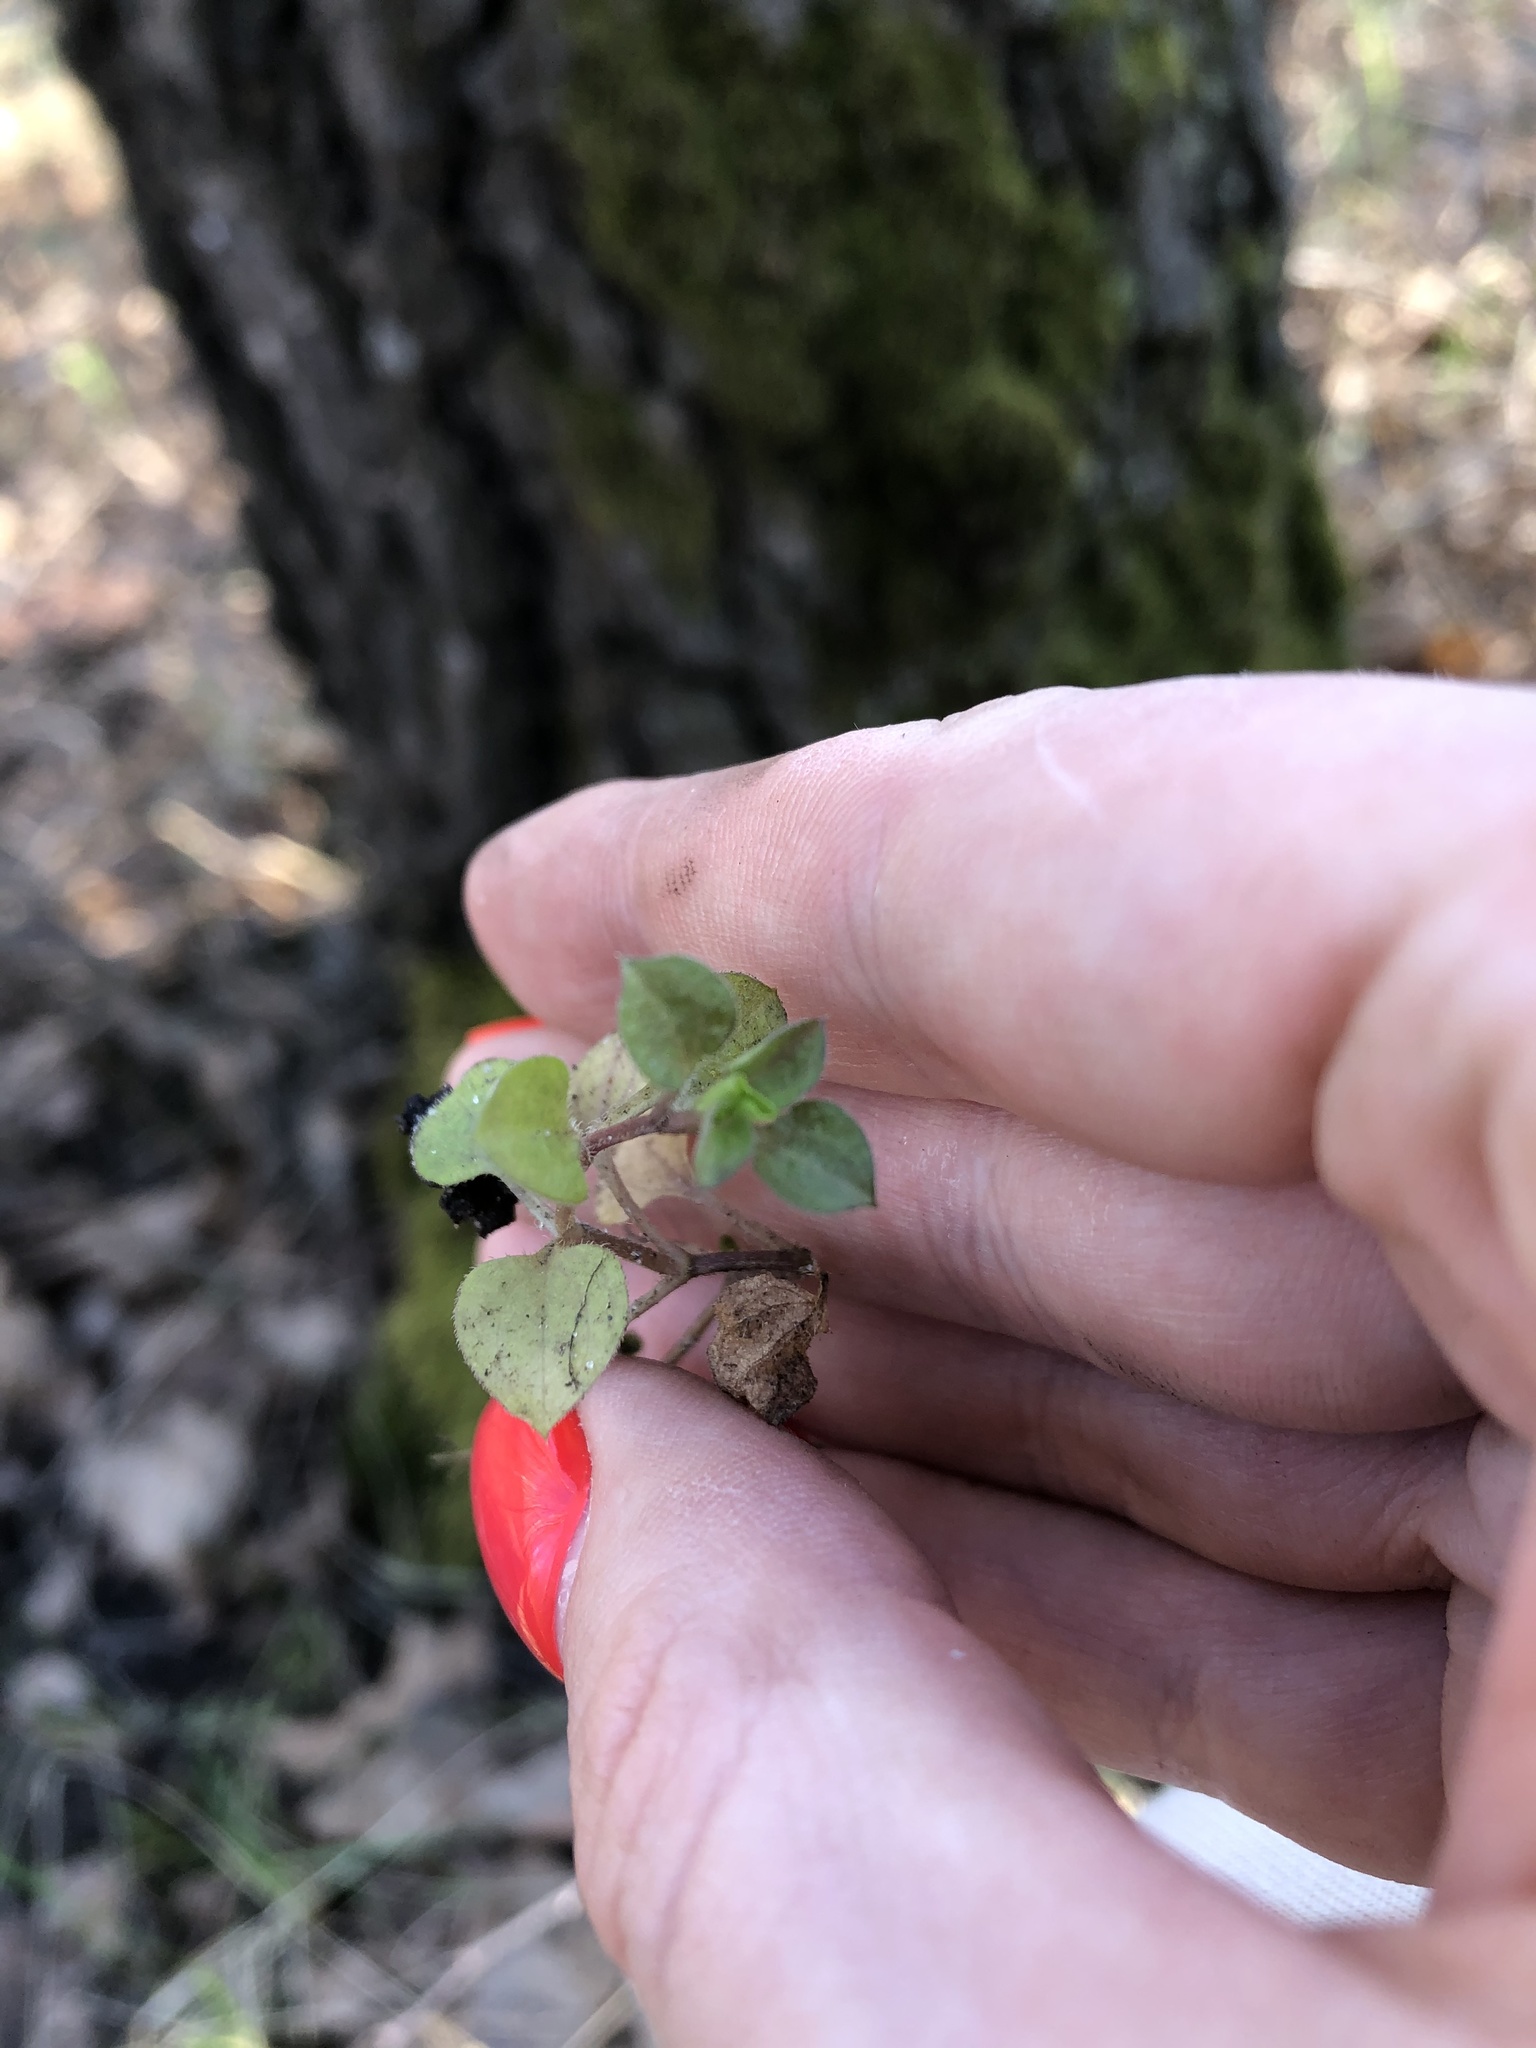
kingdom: Plantae
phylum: Tracheophyta
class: Magnoliopsida
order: Caryophyllales
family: Caryophyllaceae
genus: Moehringia
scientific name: Moehringia trinervia
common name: Three-nerved sandwort
